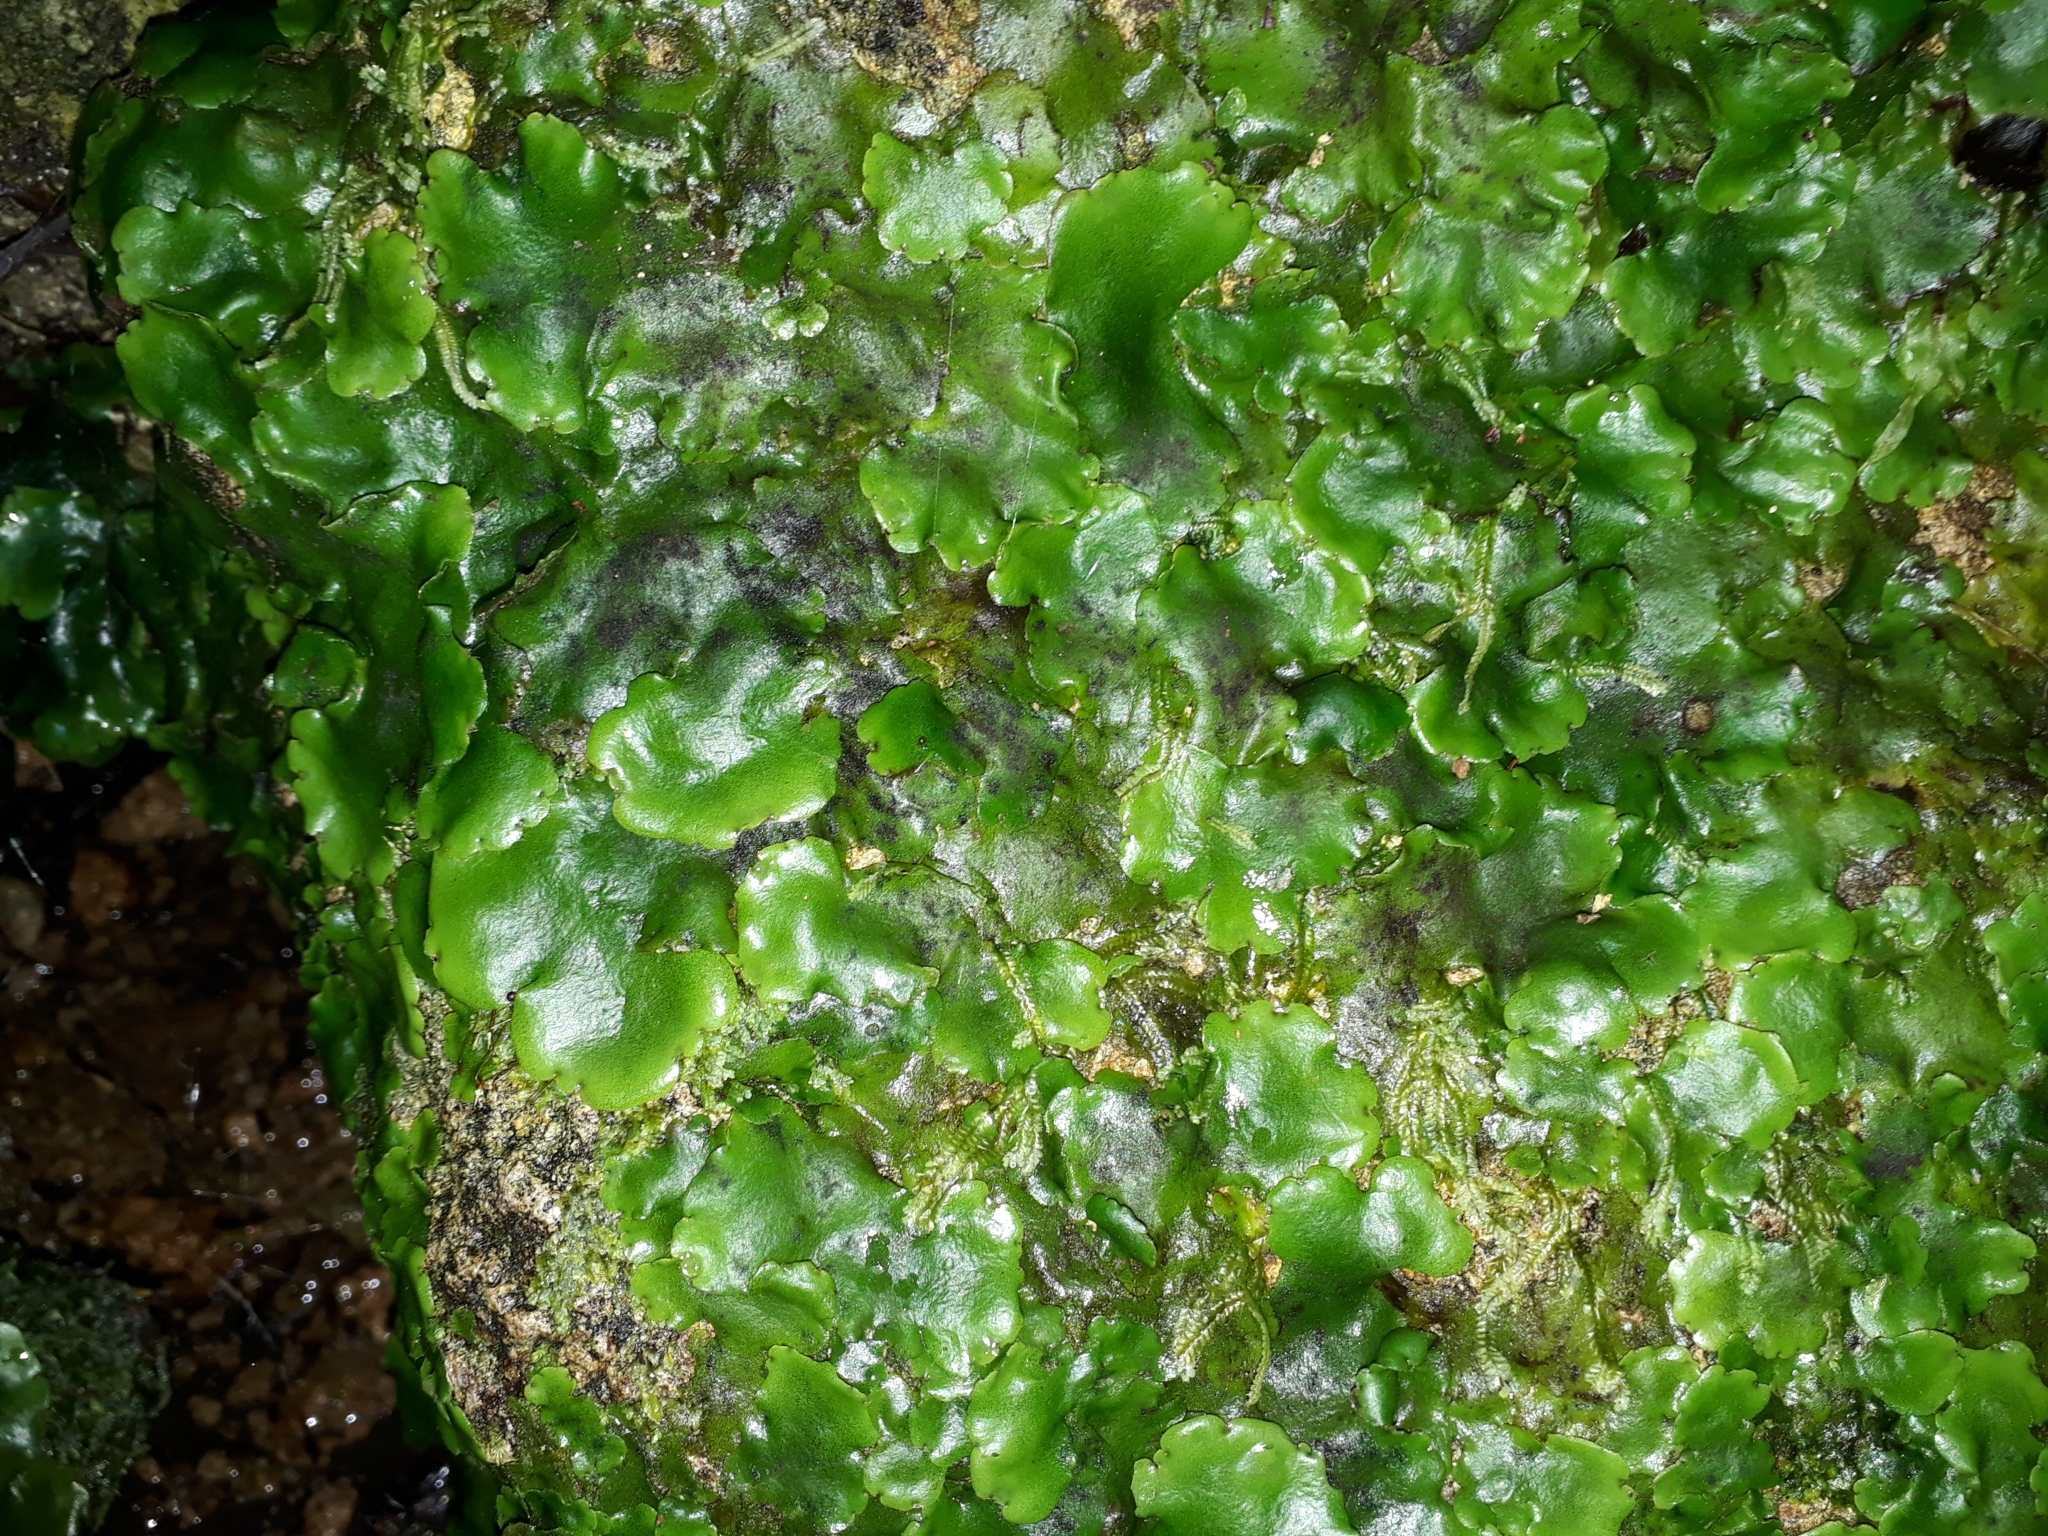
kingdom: Plantae
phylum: Marchantiophyta
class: Marchantiopsida
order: Marchantiales
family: Monocleaceae
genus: Monoclea
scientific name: Monoclea forsteri
